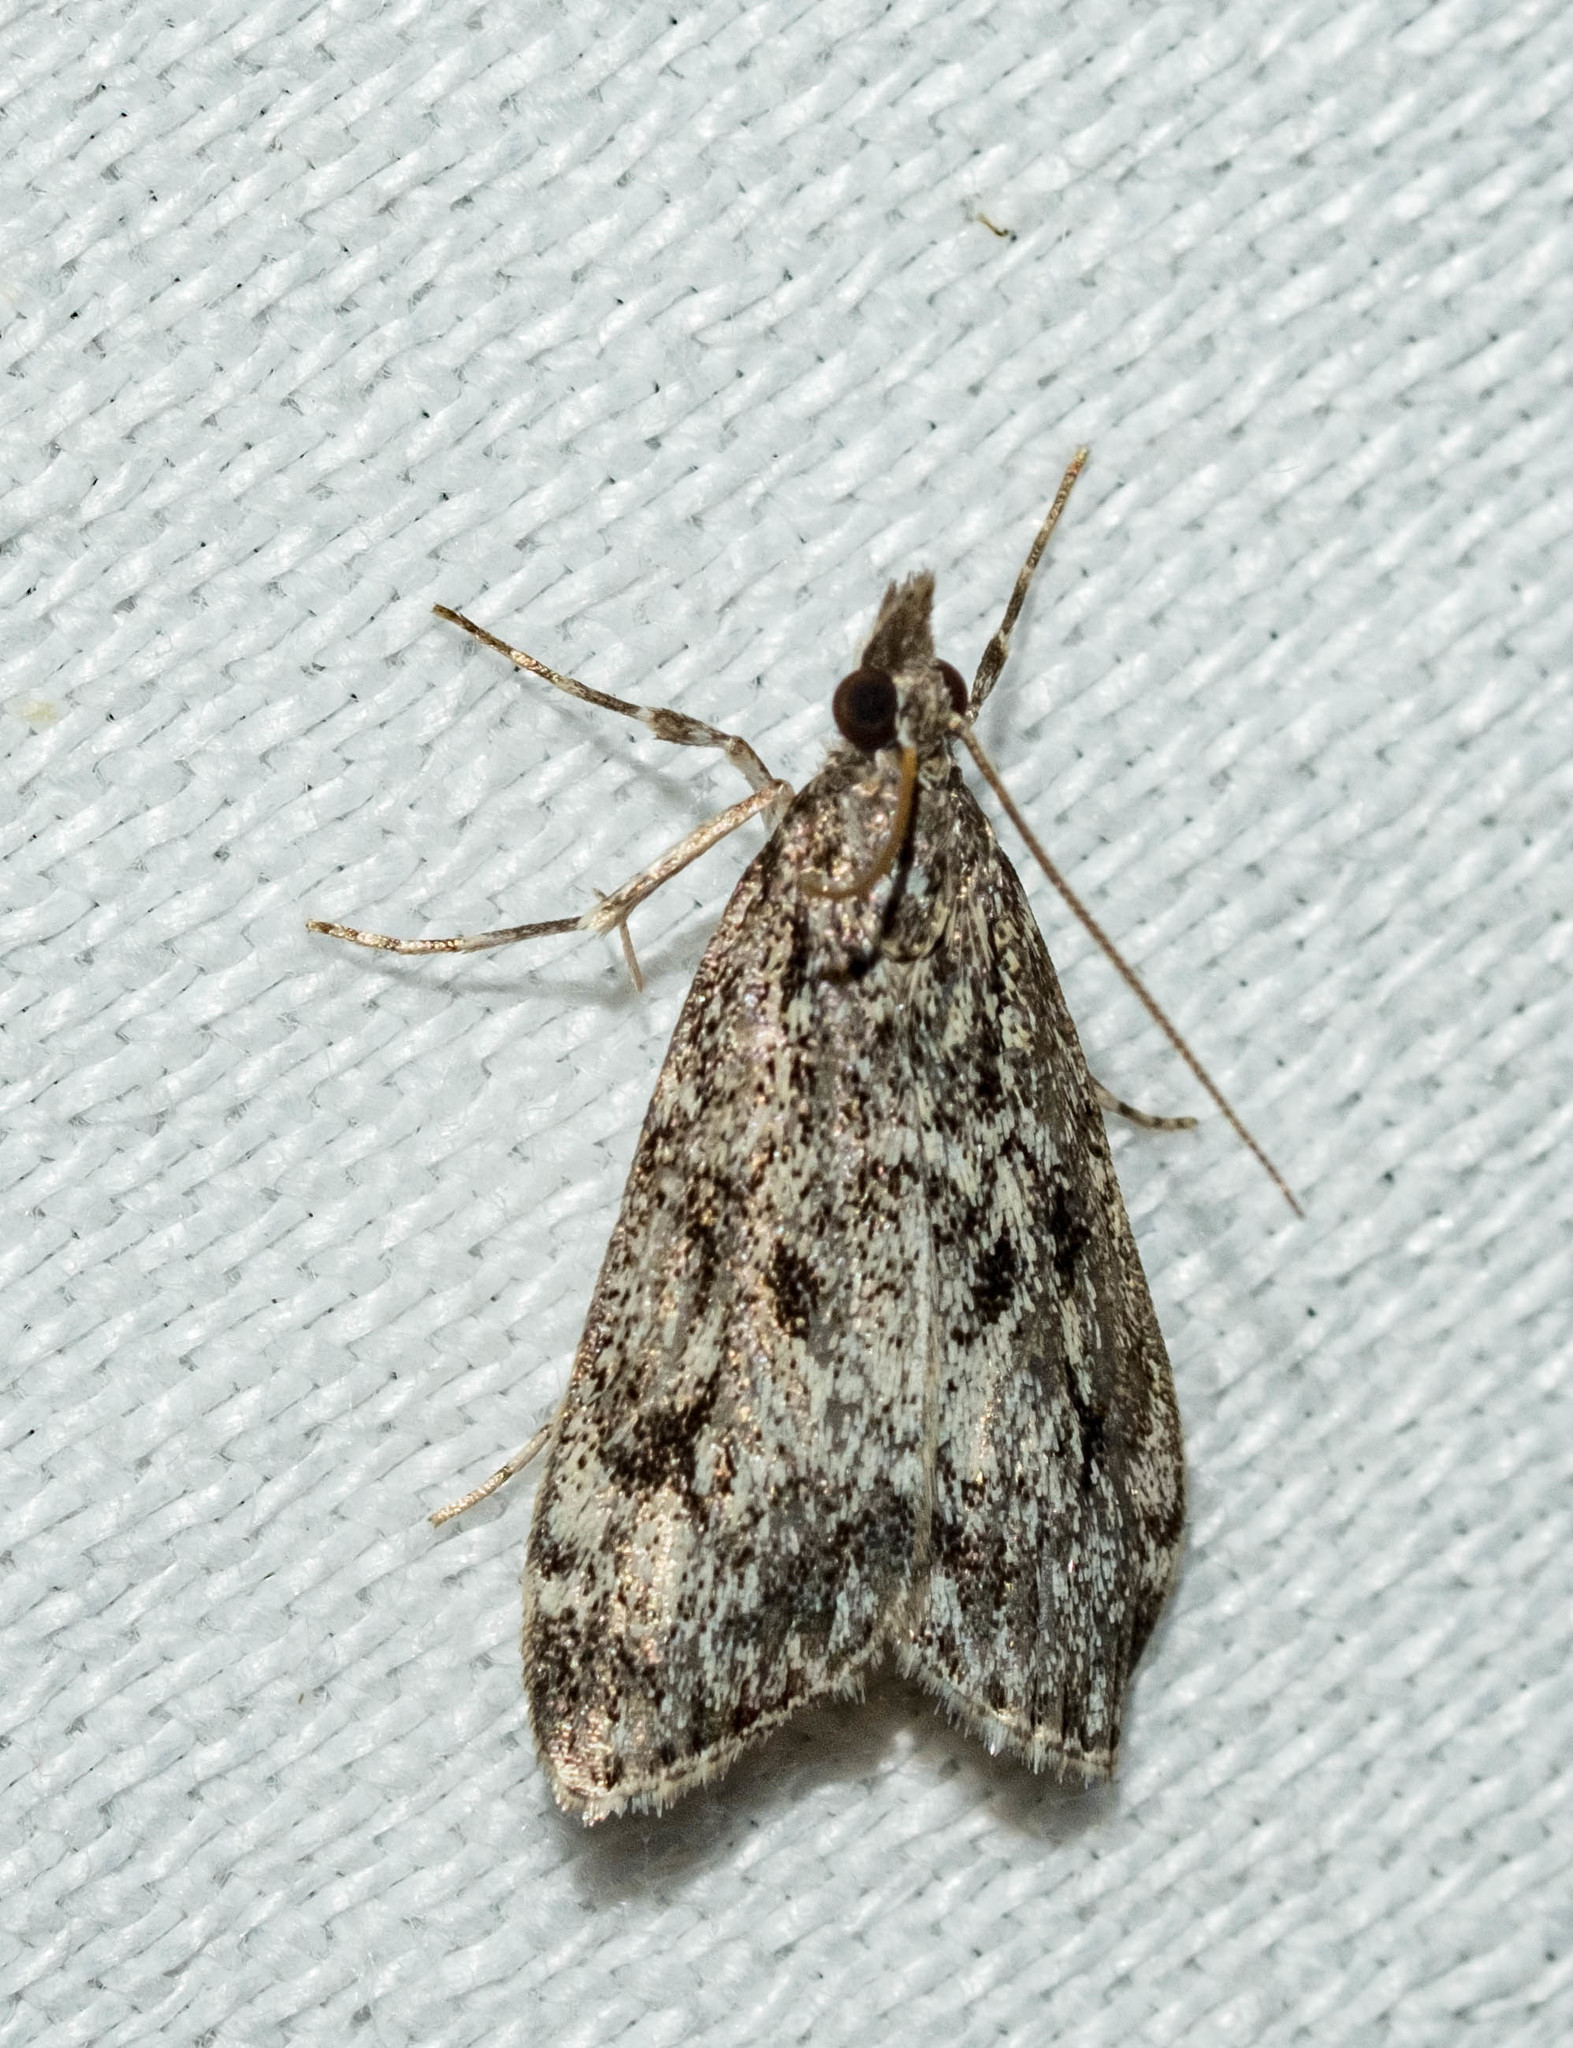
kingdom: Animalia
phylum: Arthropoda
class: Insecta
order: Lepidoptera
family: Crambidae
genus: Eudonia
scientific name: Eudonia truncicolella
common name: Ground-moss grey
